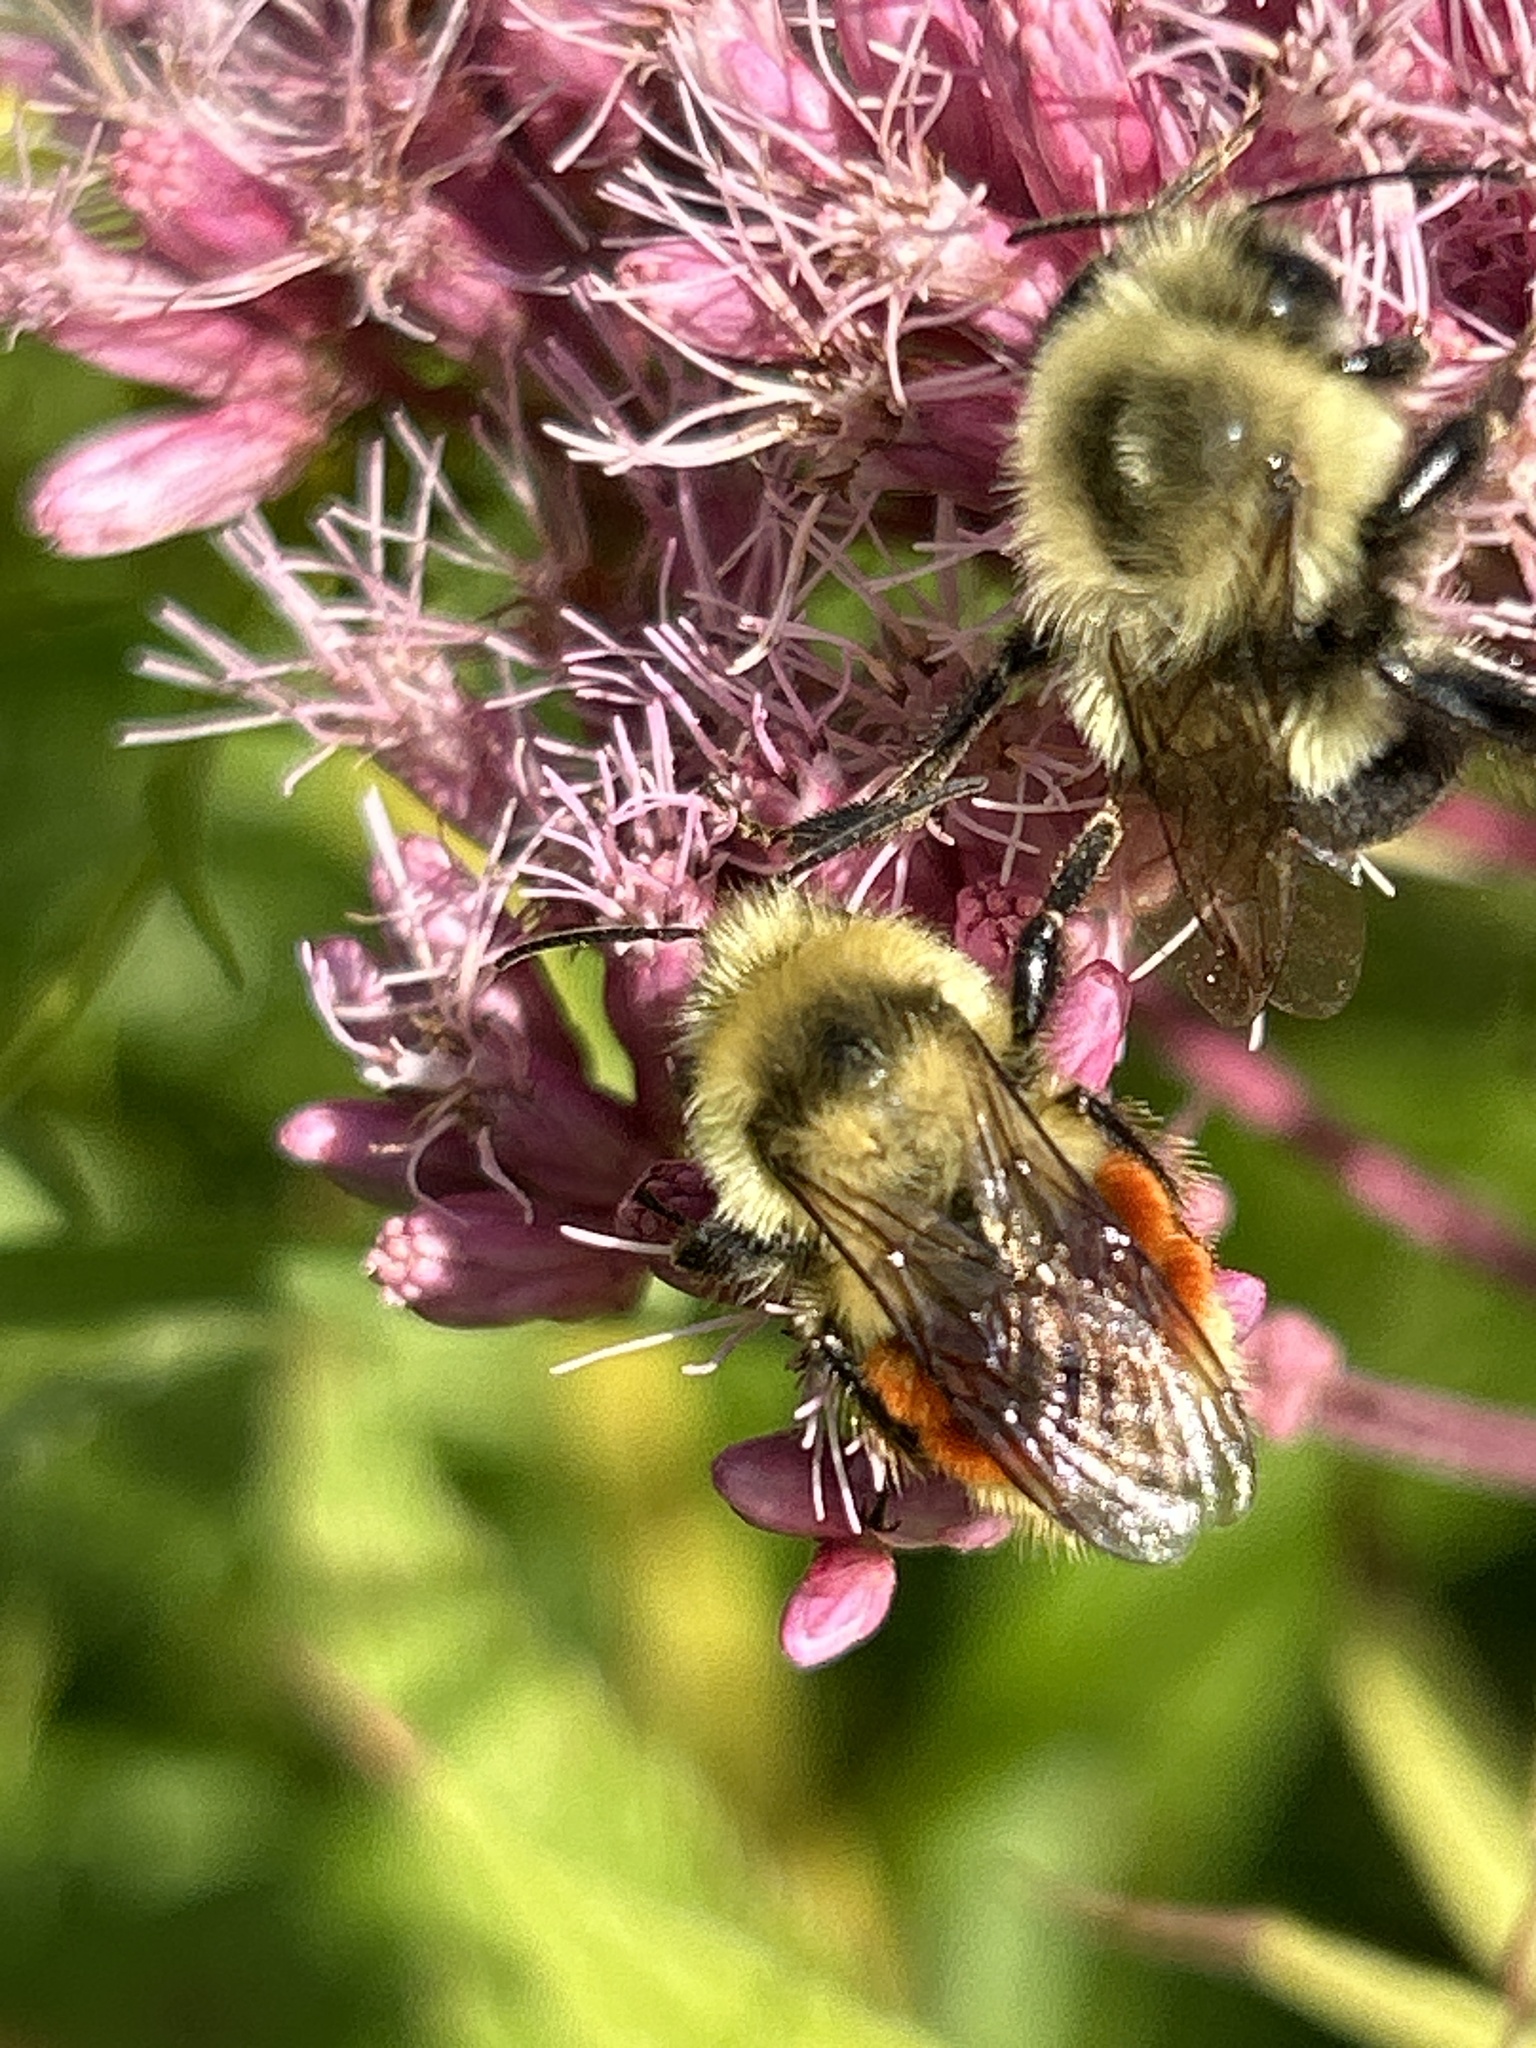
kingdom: Animalia
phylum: Arthropoda
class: Insecta
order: Hymenoptera
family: Apidae
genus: Bombus
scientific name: Bombus ternarius
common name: Tri-colored bumble bee
